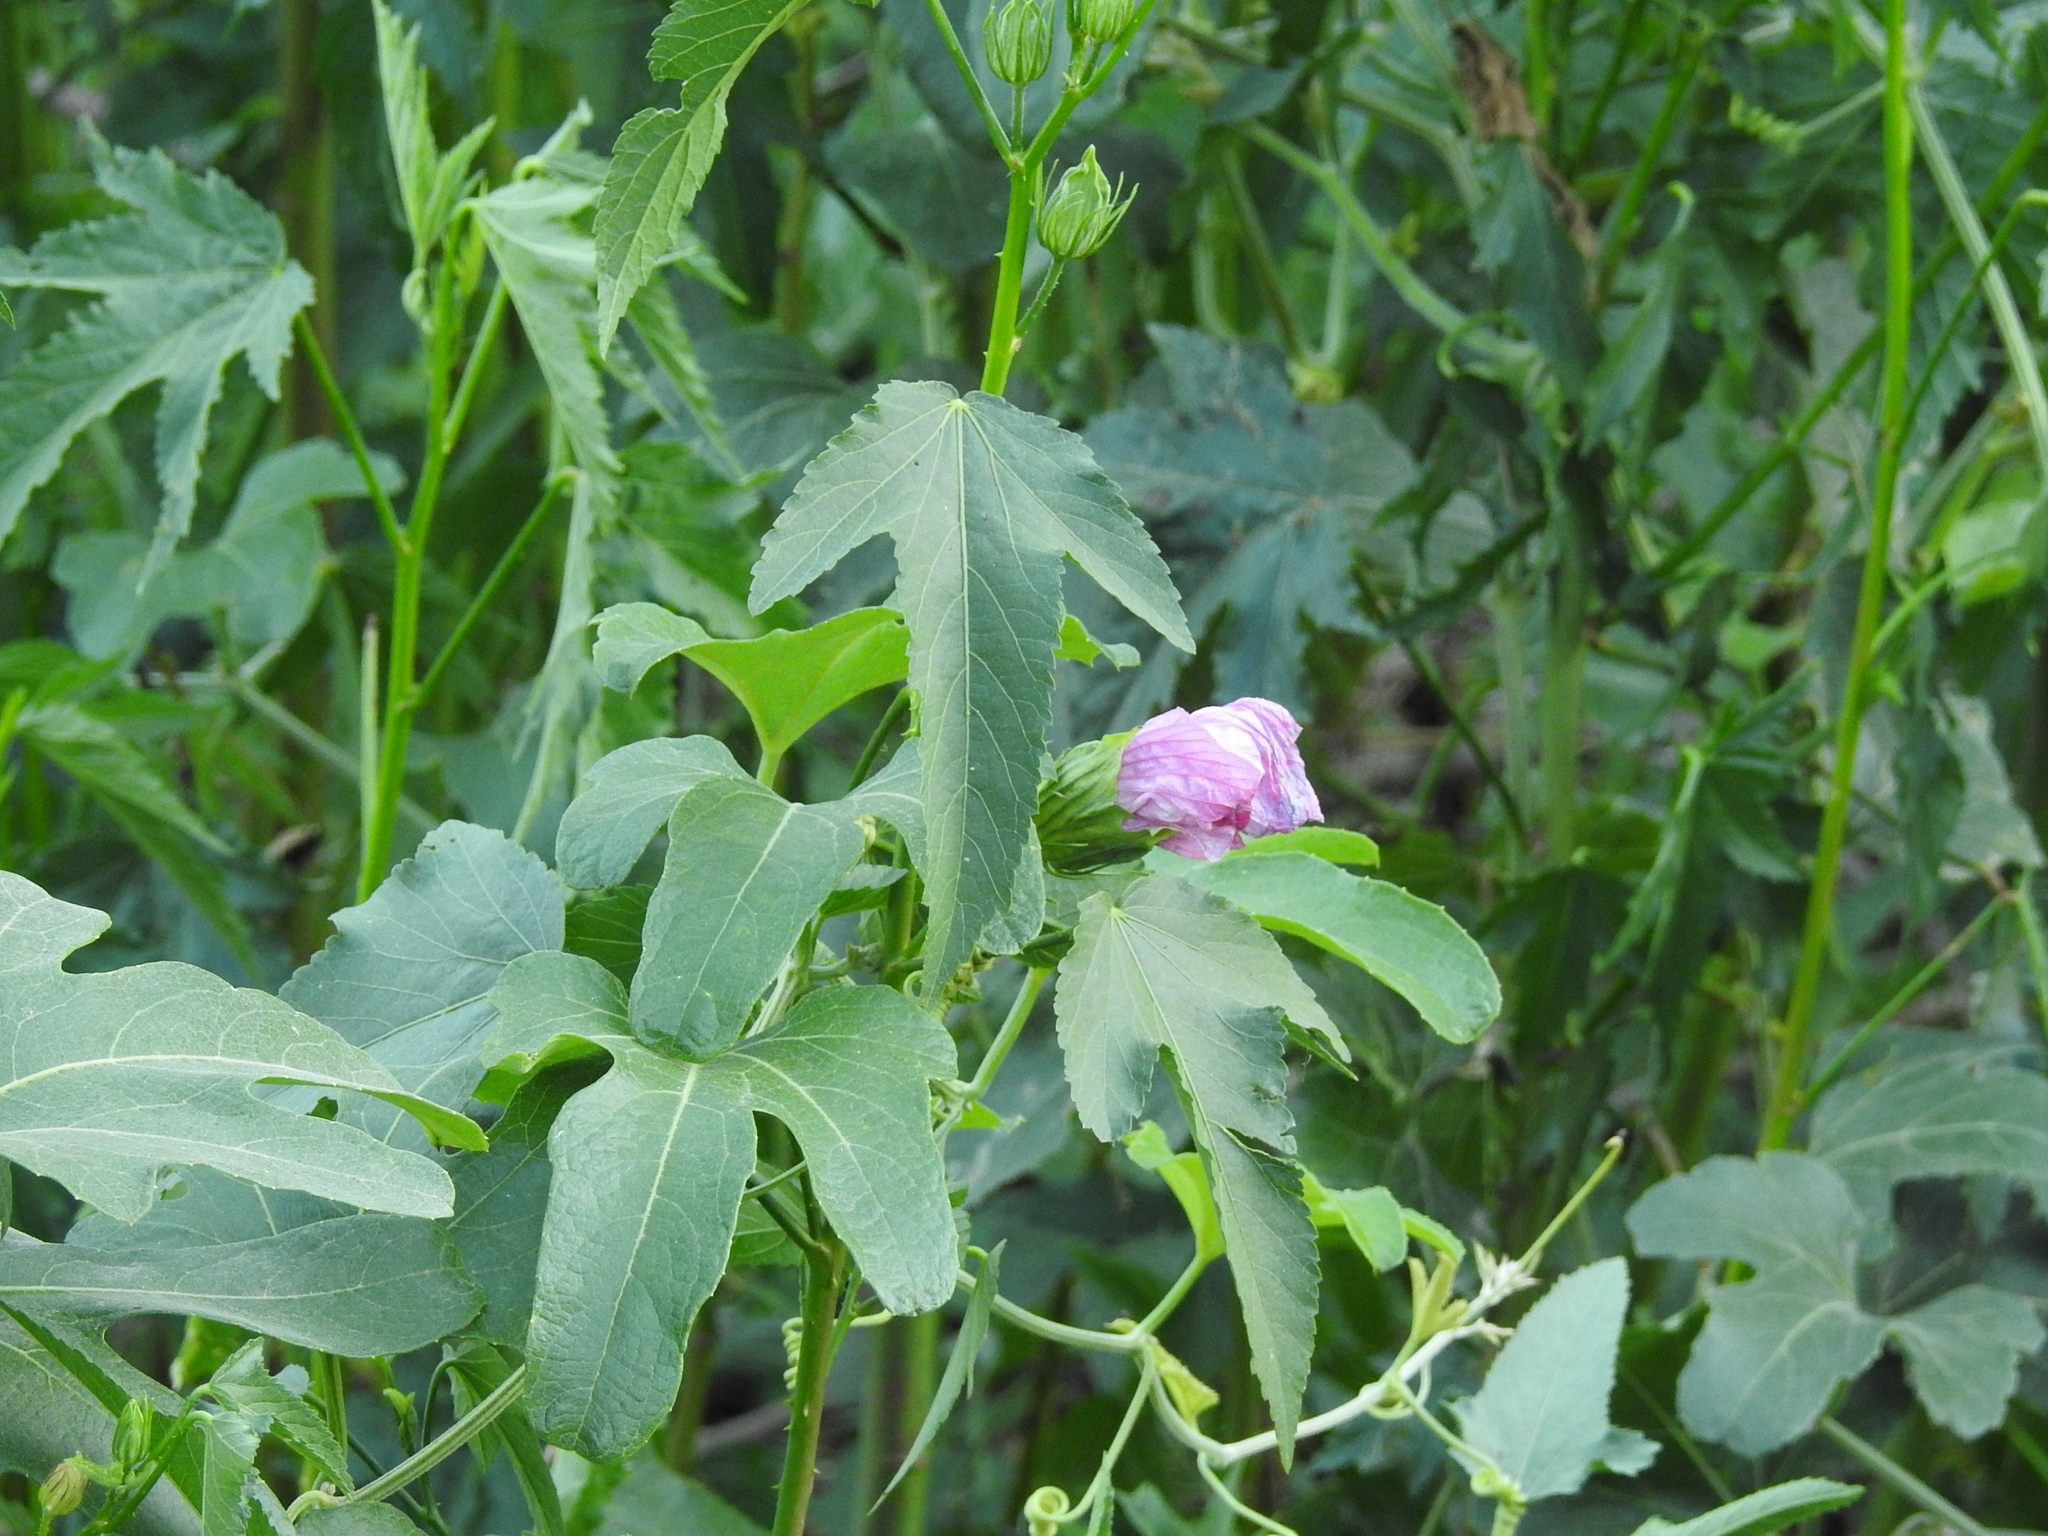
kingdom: Plantae
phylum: Tracheophyta
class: Magnoliopsida
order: Malvales
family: Malvaceae
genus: Hibiscus
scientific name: Hibiscus striatus
